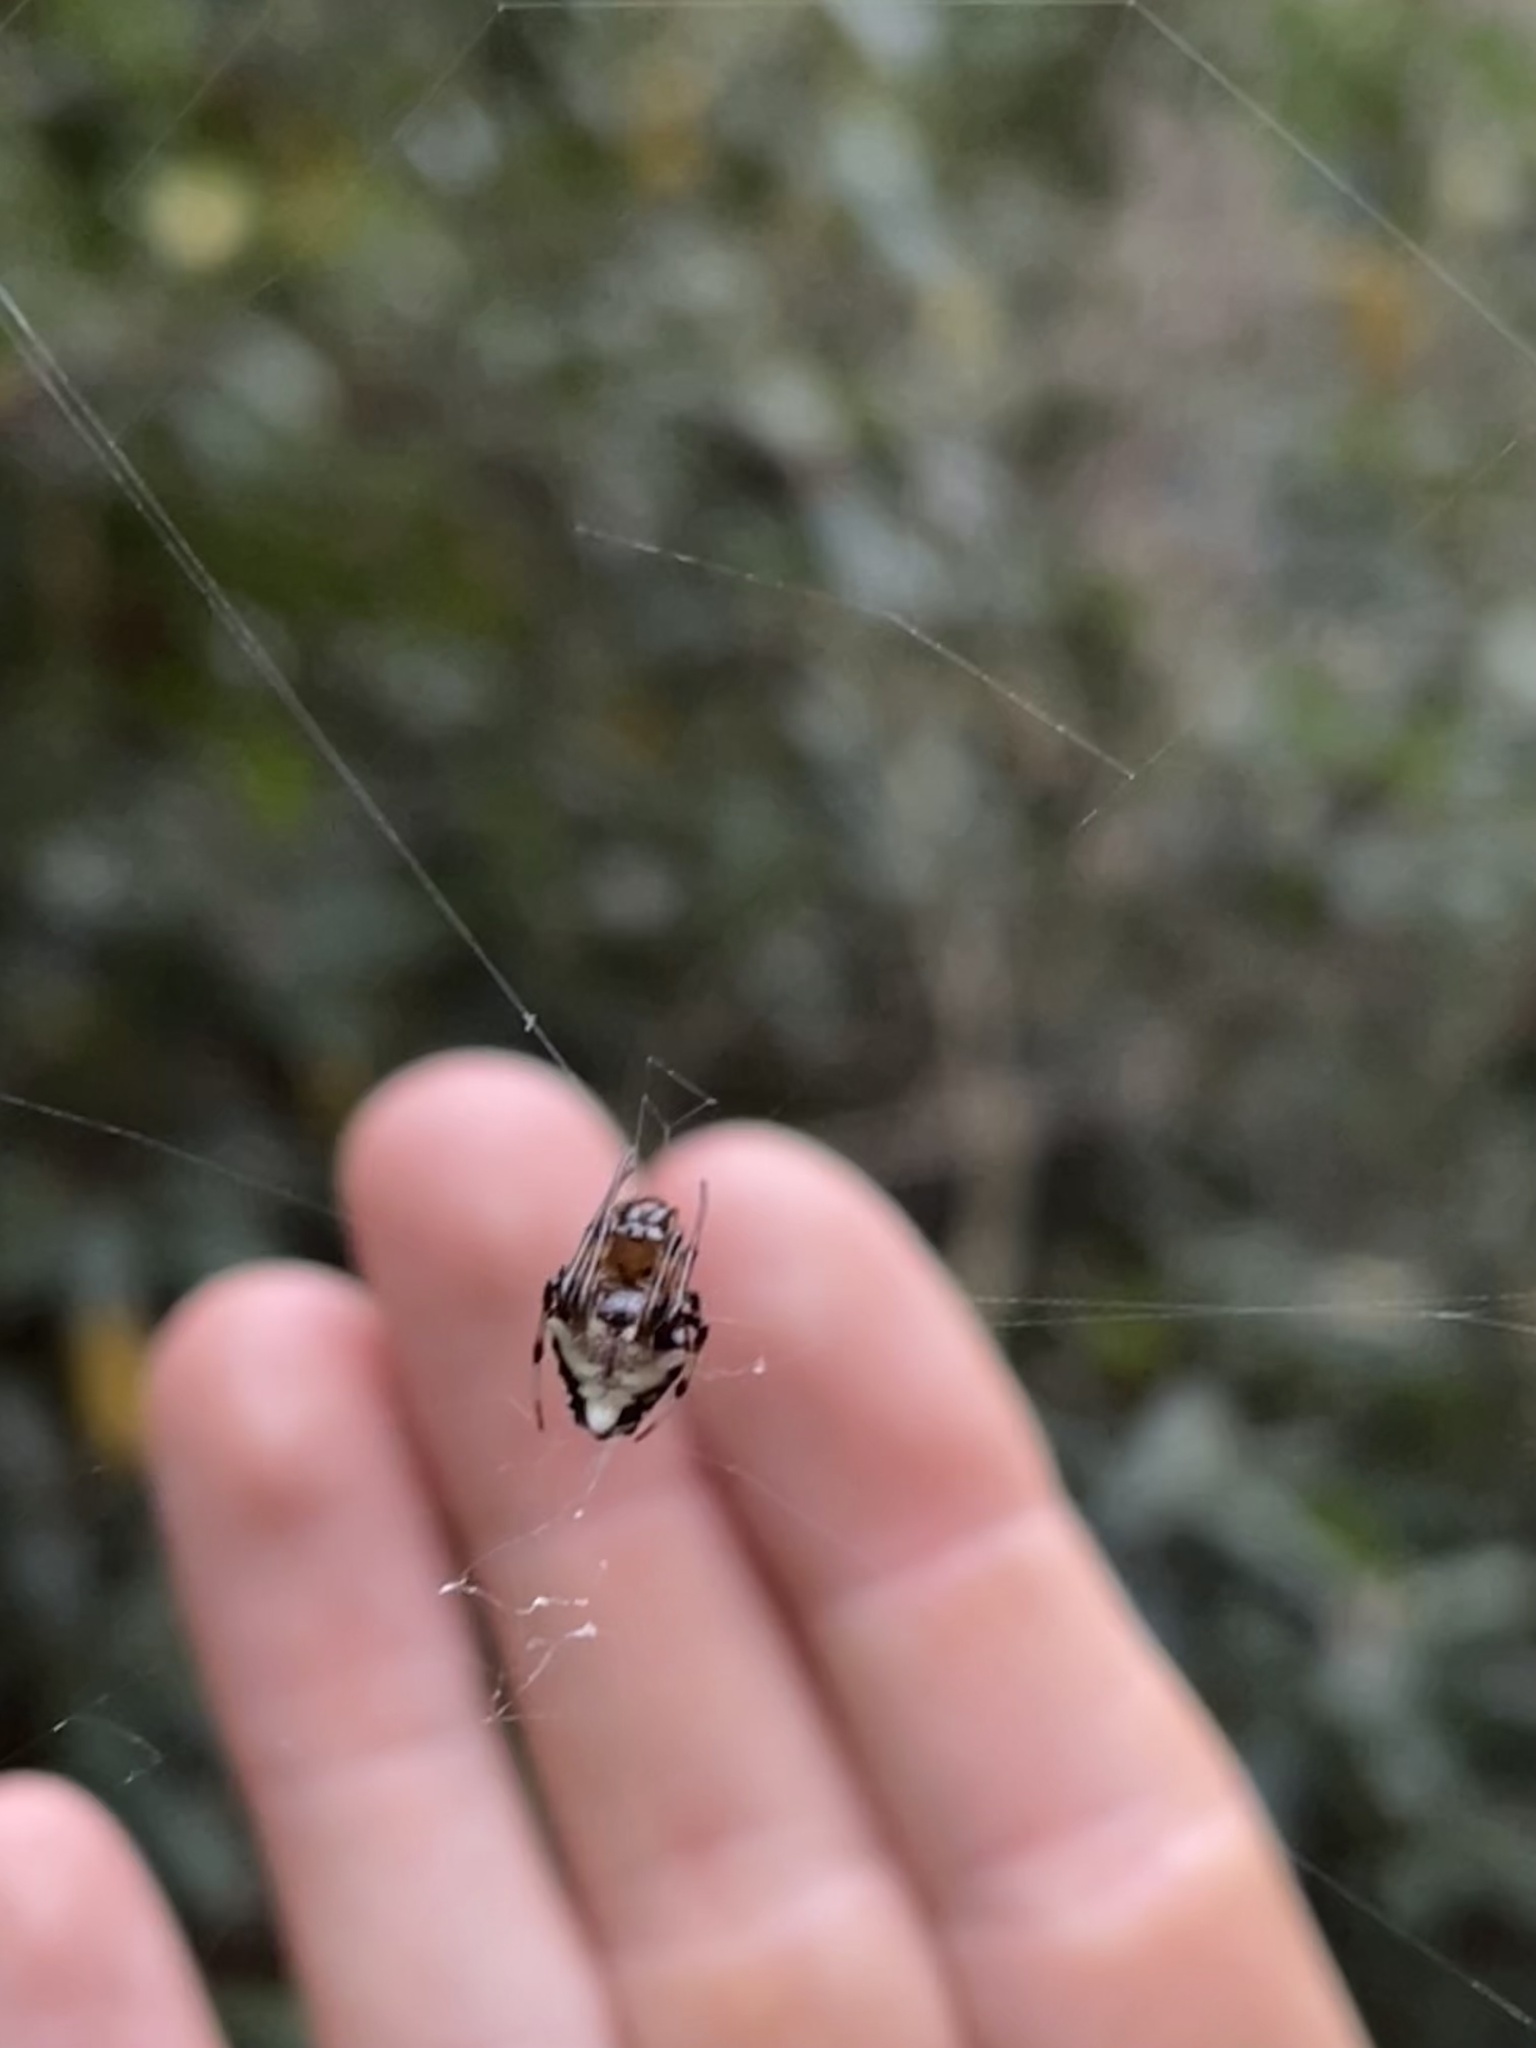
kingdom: Animalia
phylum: Arthropoda
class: Arachnida
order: Araneae
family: Araneidae
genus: Verrucosa
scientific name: Verrucosa arenata
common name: Orb weavers
